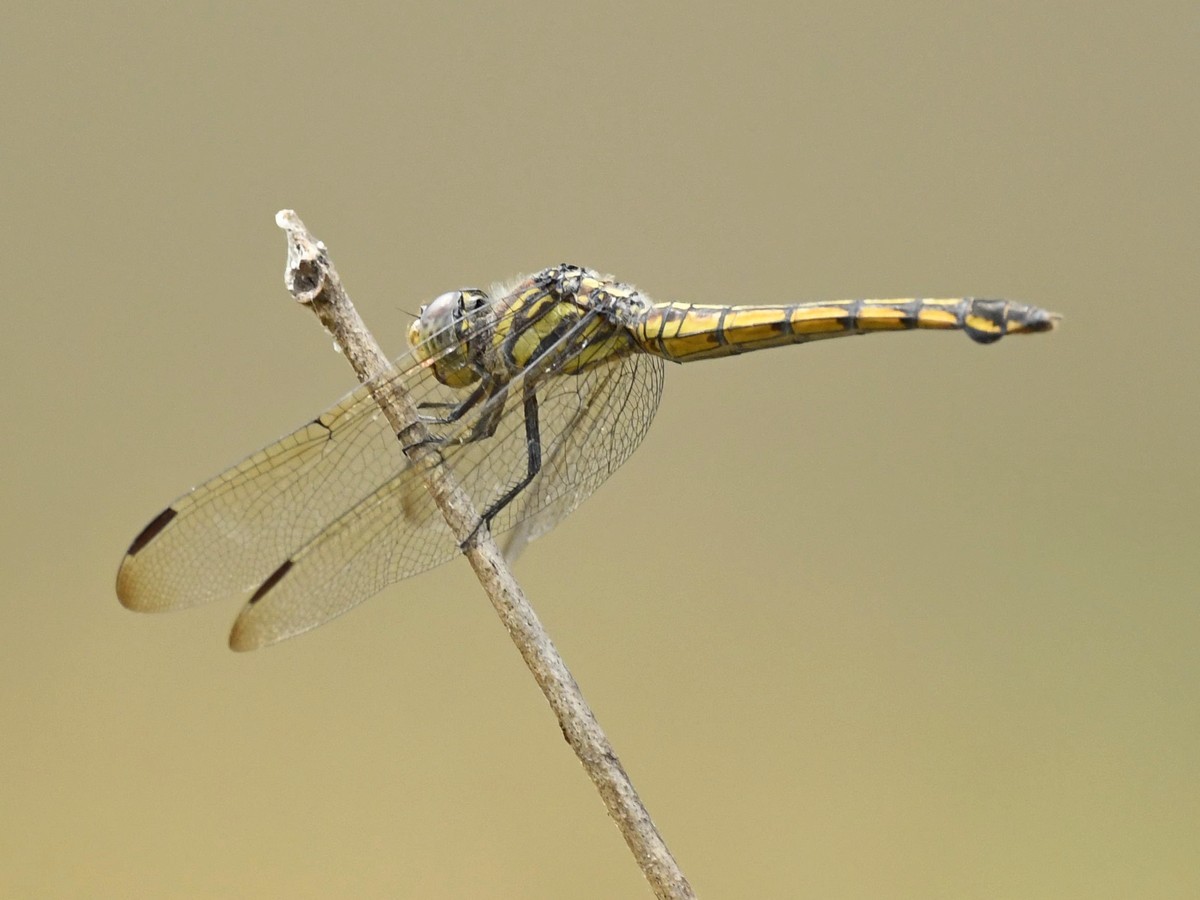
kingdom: Animalia
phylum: Arthropoda
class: Insecta
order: Odonata
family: Libellulidae
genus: Potamarcha
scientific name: Potamarcha congener
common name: Blue chaser
